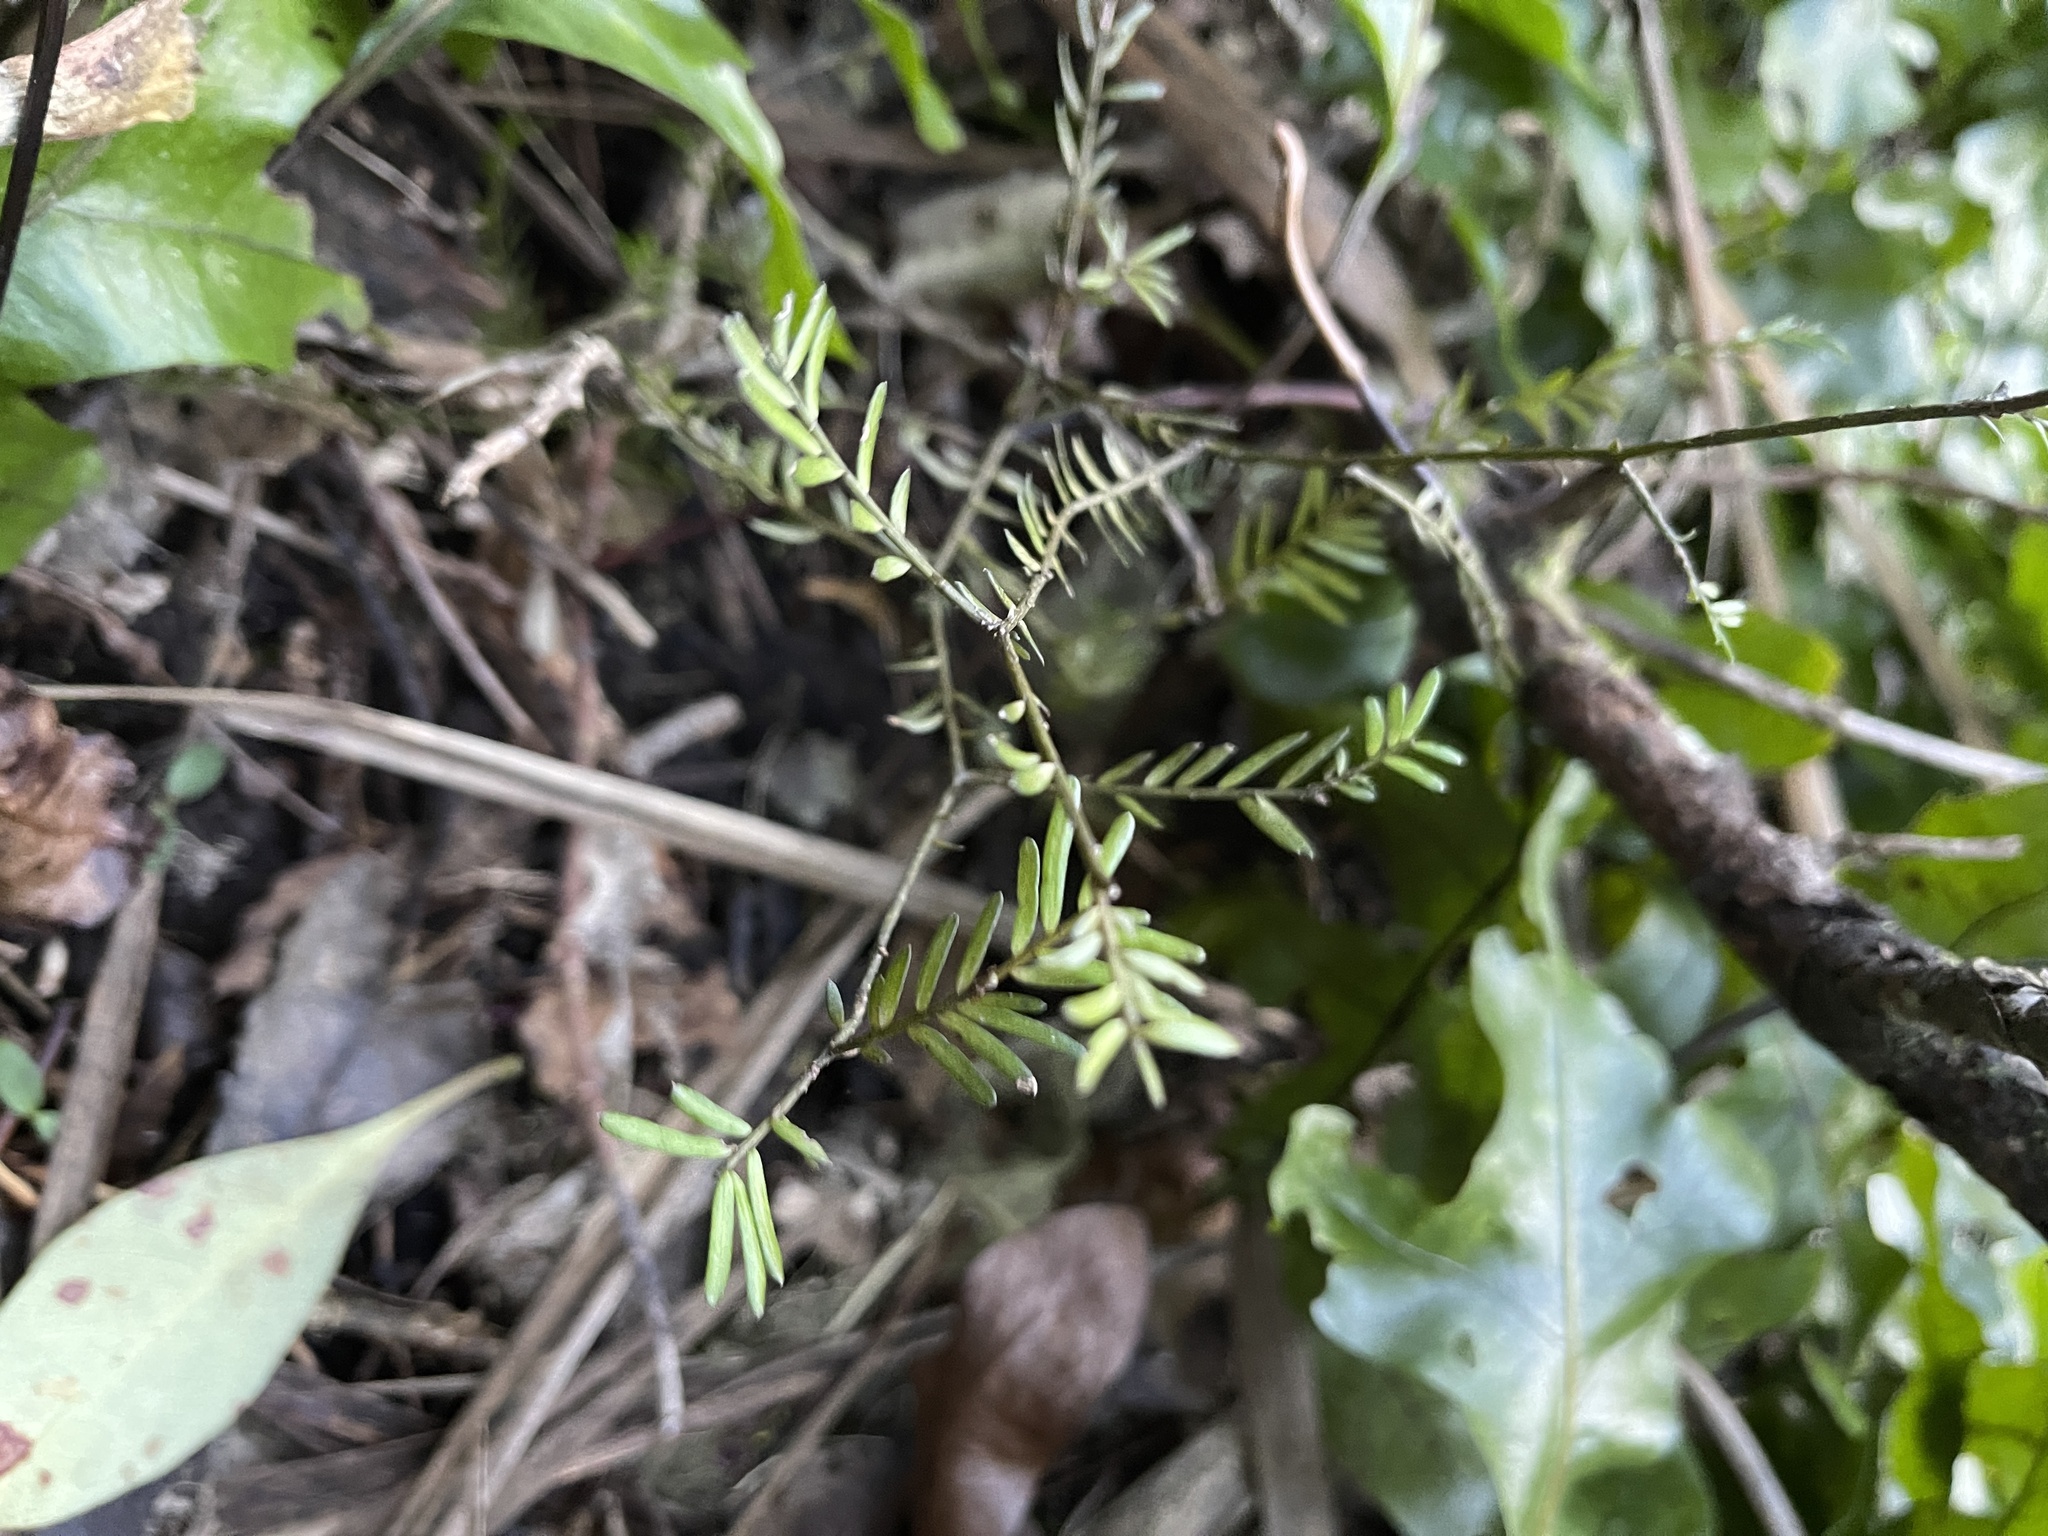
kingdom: Plantae
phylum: Tracheophyta
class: Pinopsida
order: Pinales
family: Podocarpaceae
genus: Prumnopitys
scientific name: Prumnopitys taxifolia
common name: Matai
